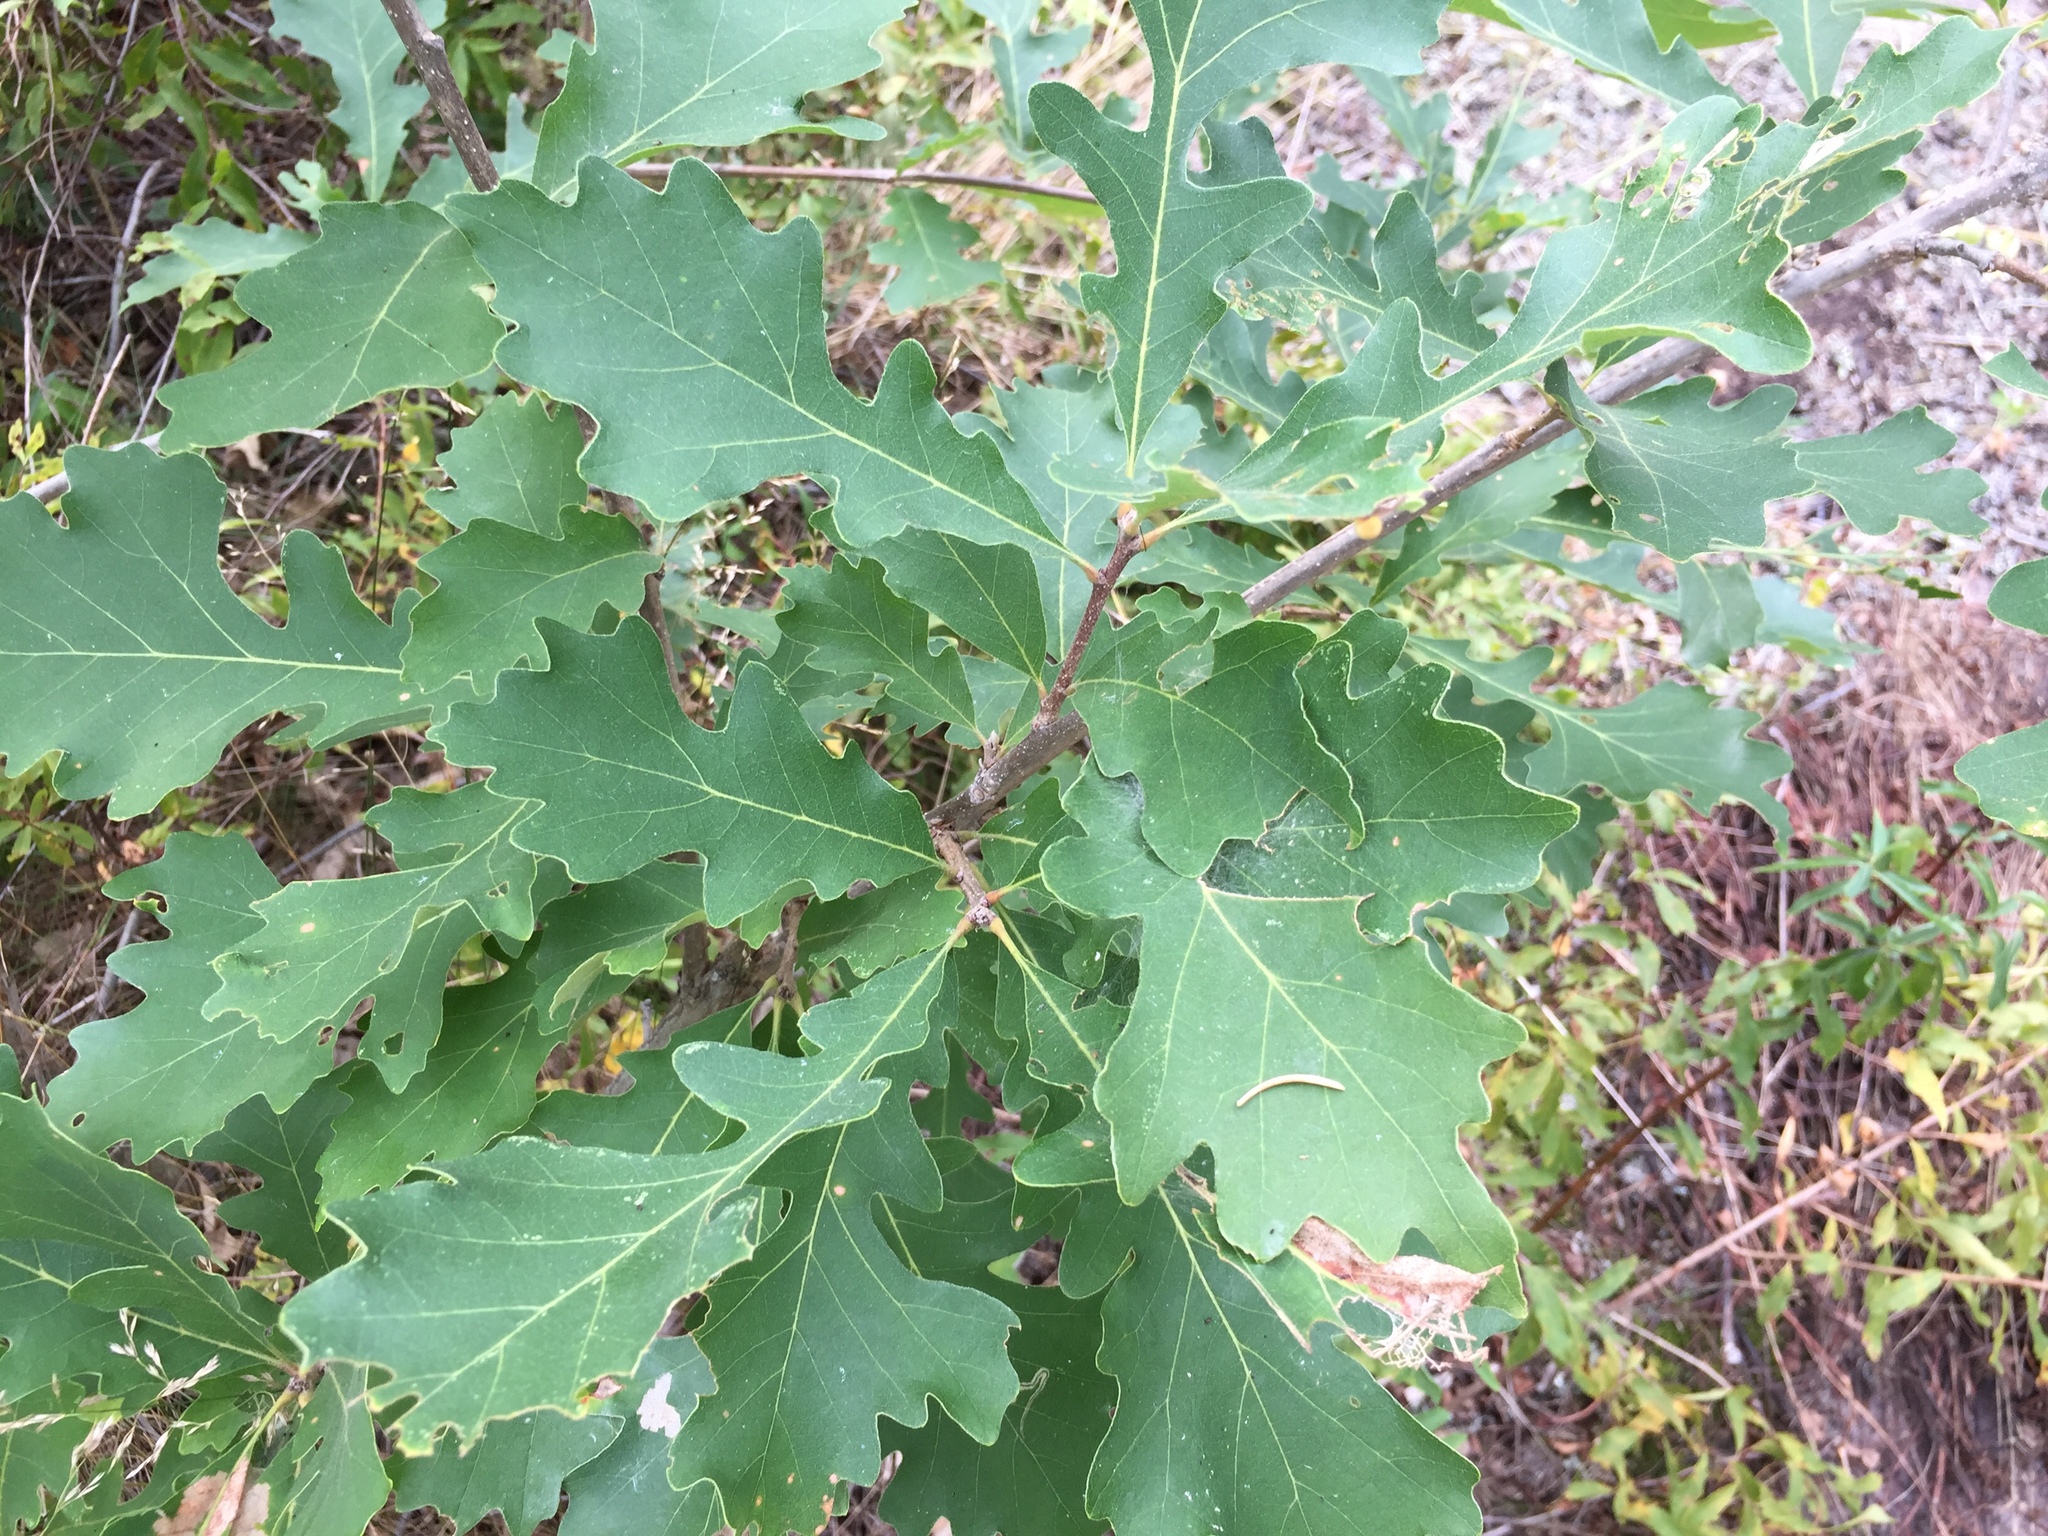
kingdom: Plantae
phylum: Tracheophyta
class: Magnoliopsida
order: Fagales
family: Fagaceae
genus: Quercus
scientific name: Quercus macrocarpa
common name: Bur oak
